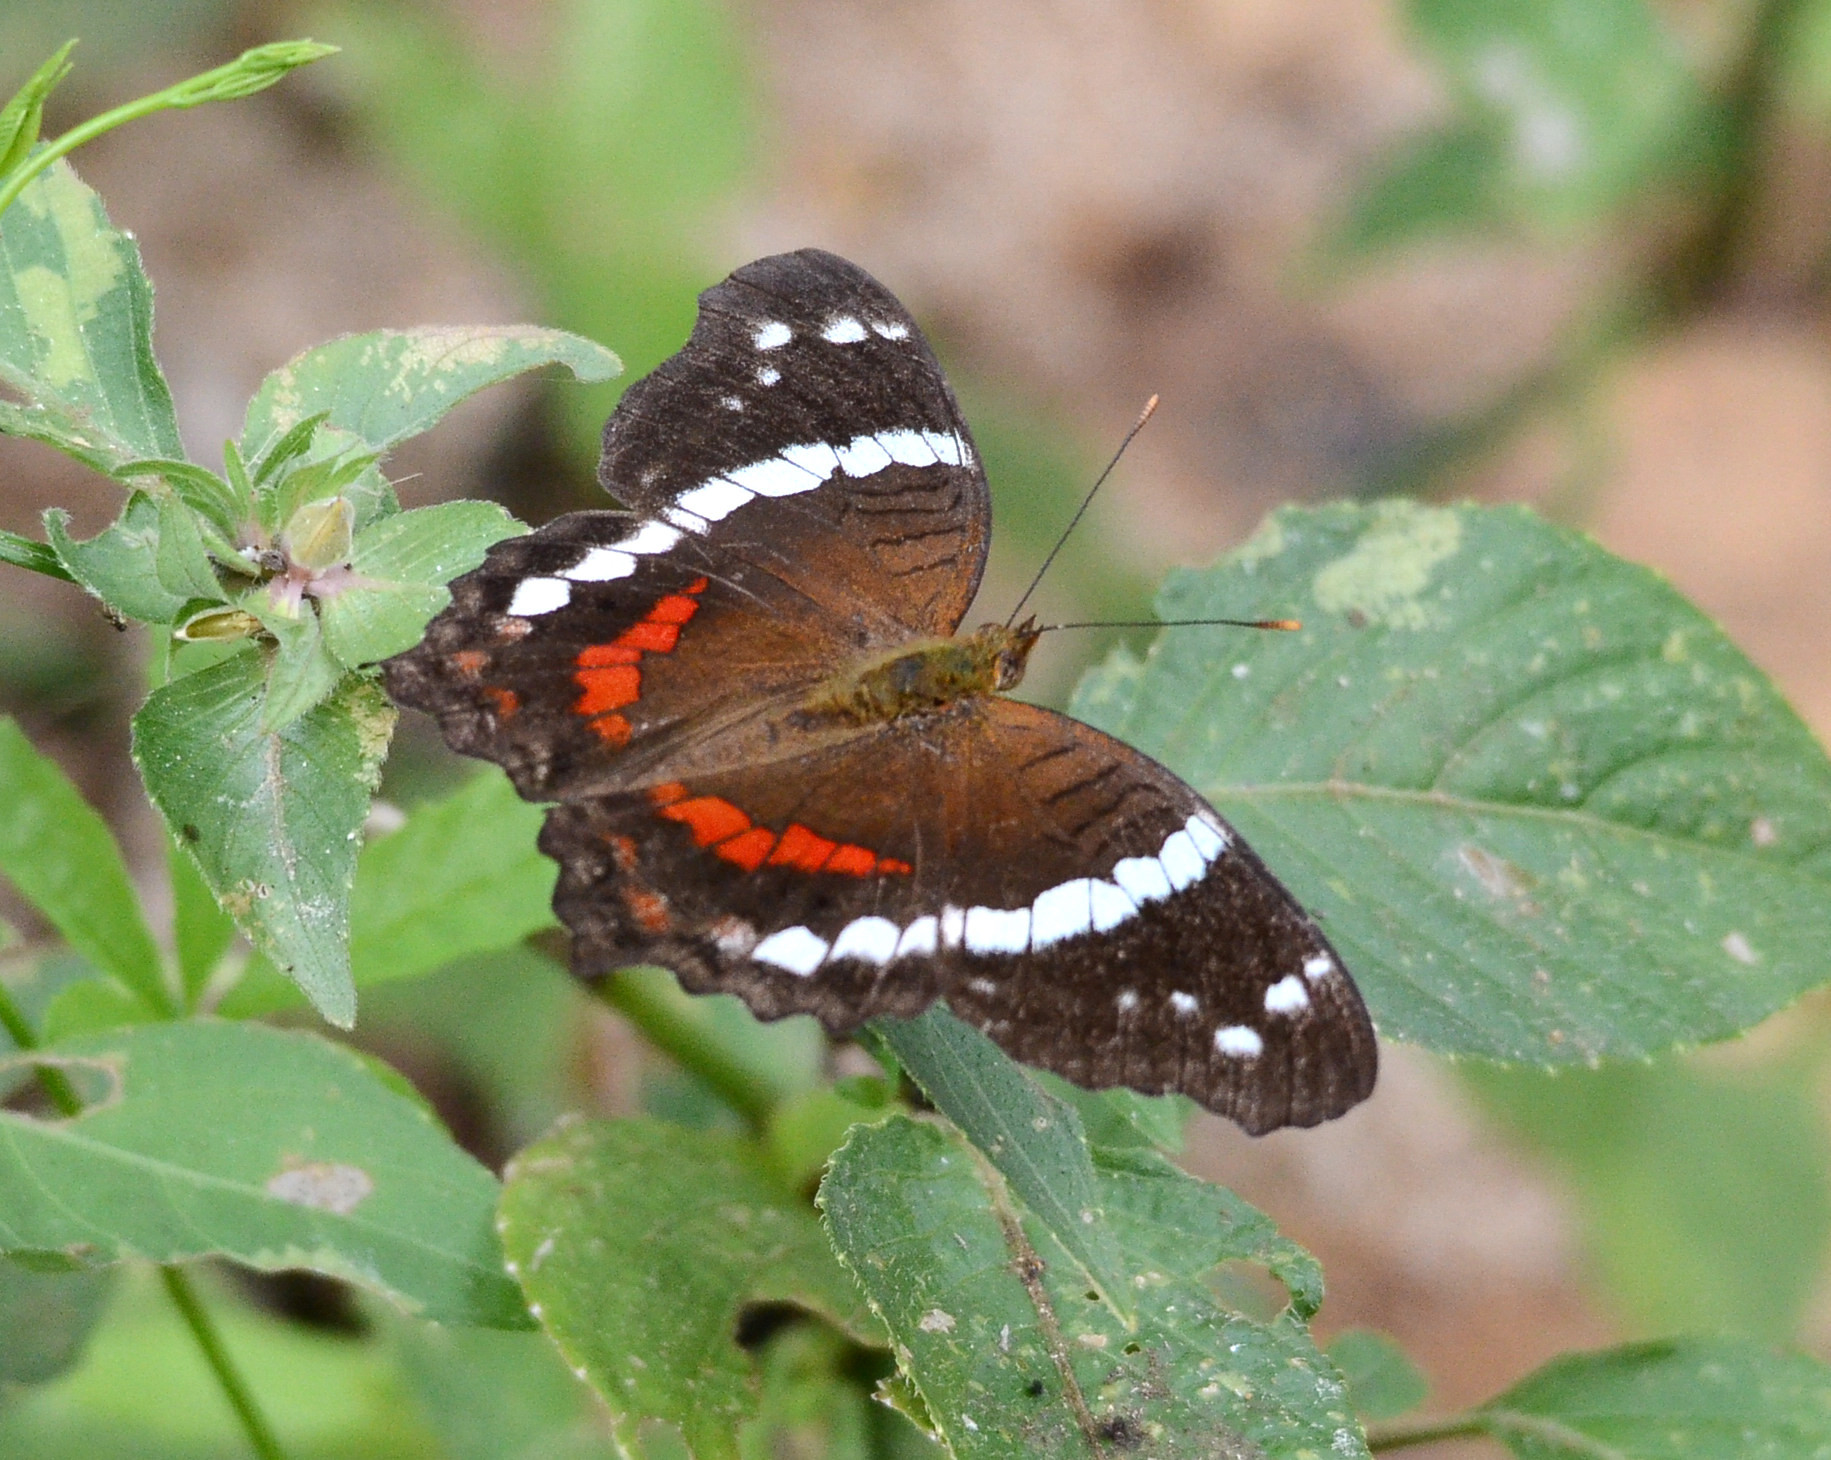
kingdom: Animalia
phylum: Arthropoda
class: Insecta
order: Lepidoptera
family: Nymphalidae
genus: Anartia
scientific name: Anartia fatima
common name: Banded peacock
